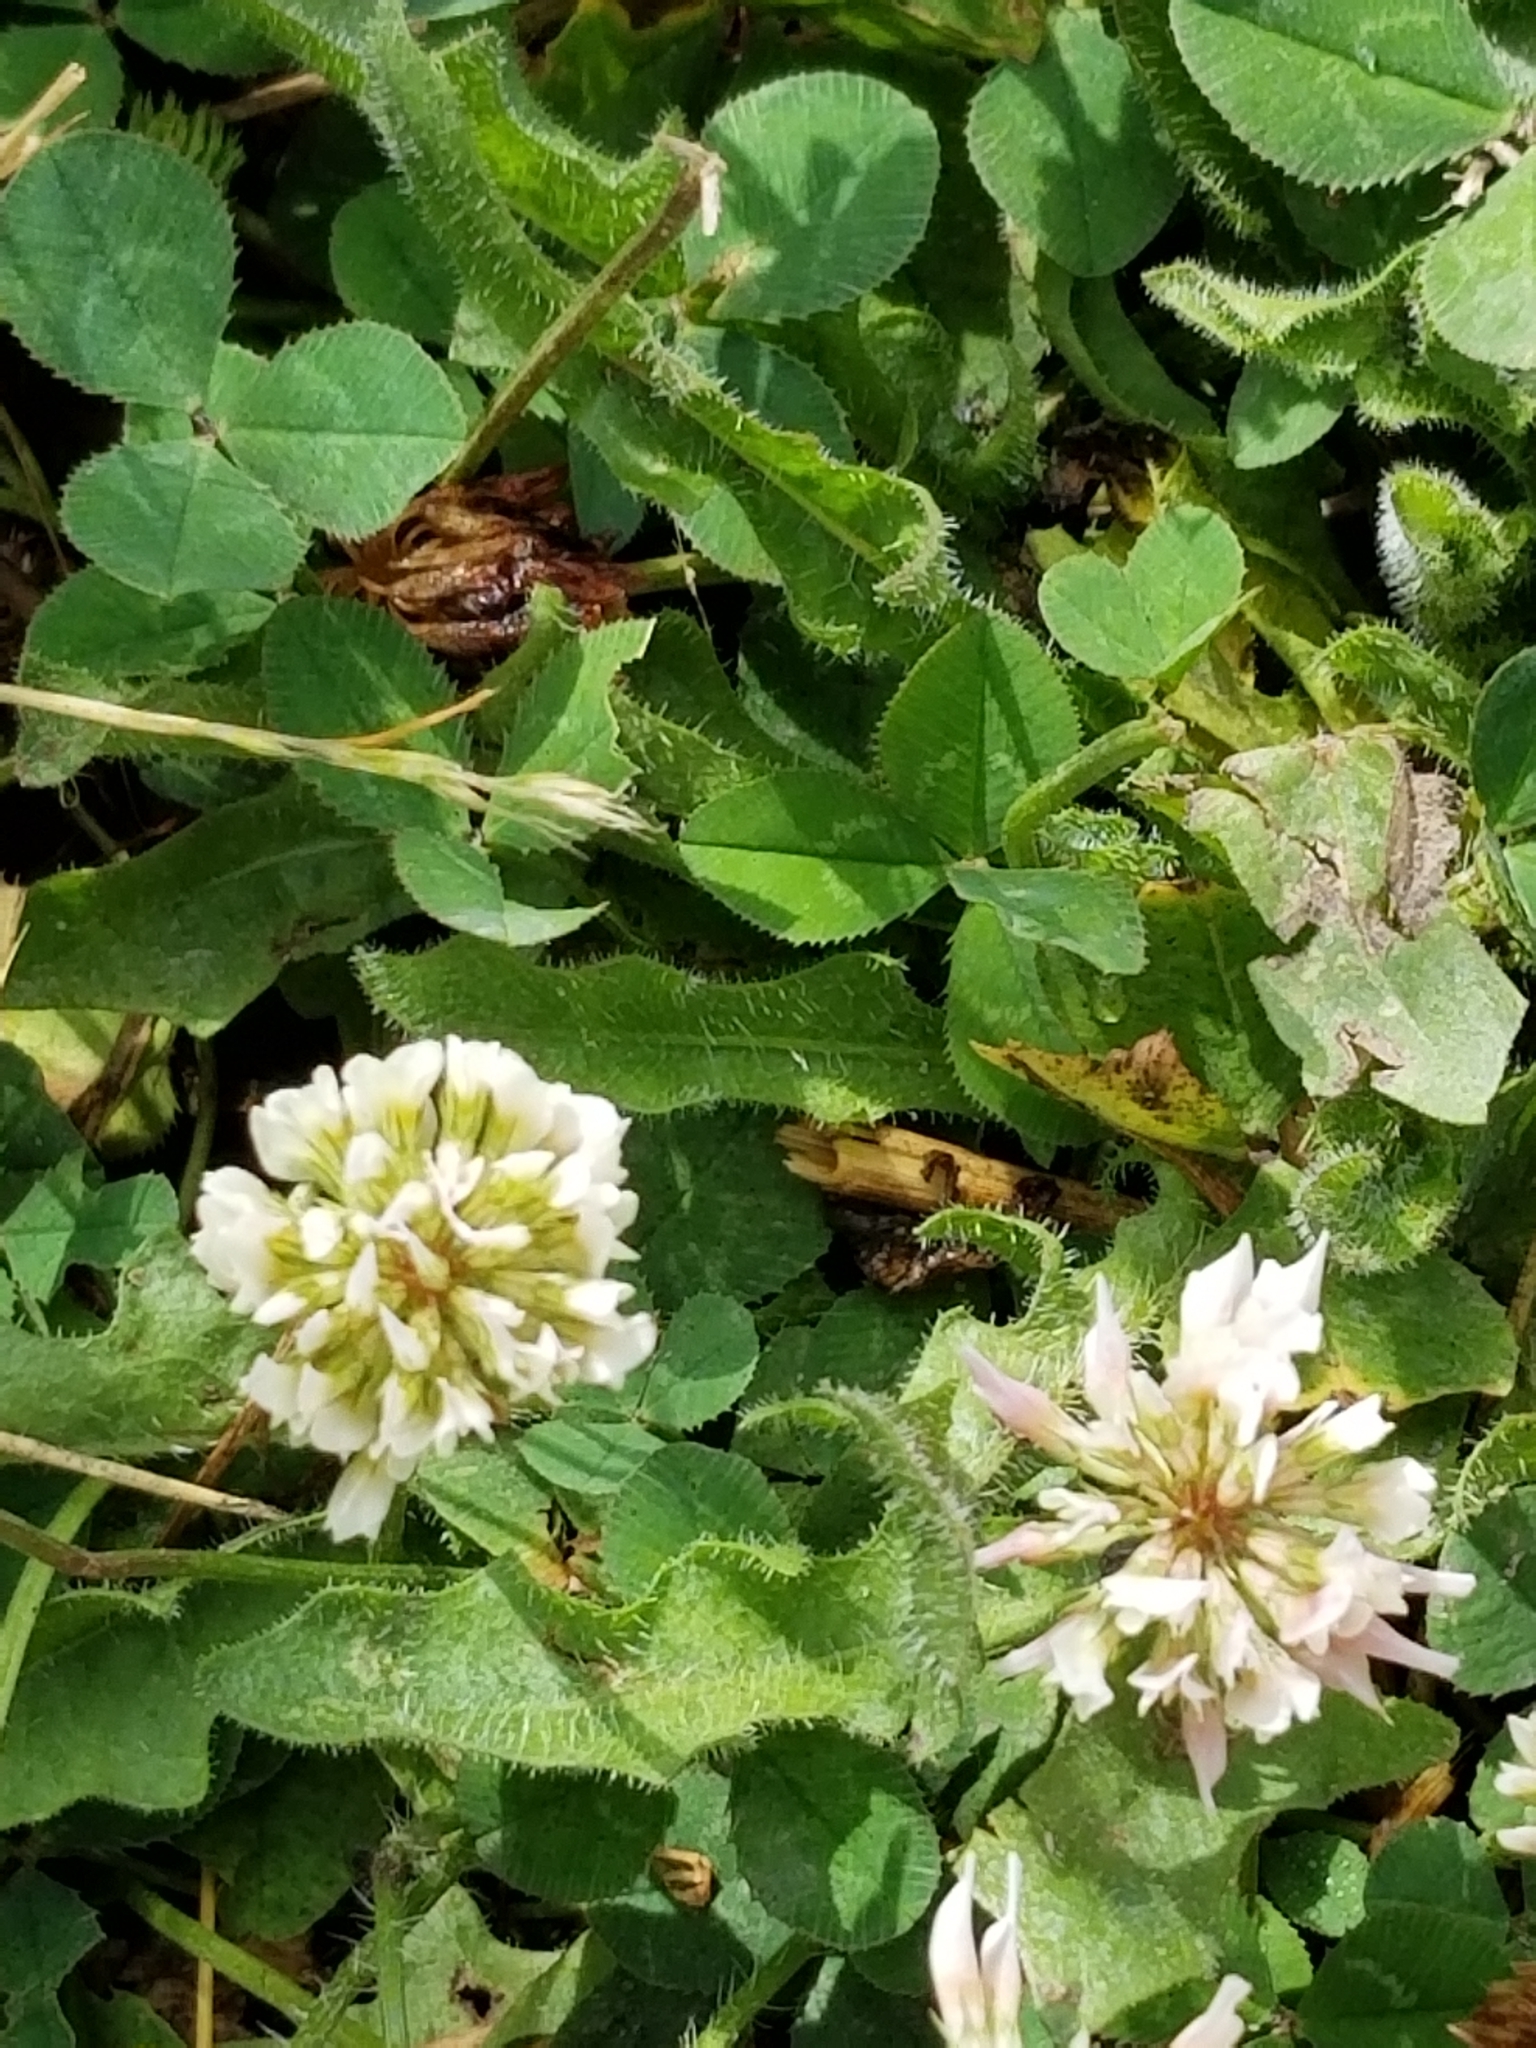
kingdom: Plantae
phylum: Tracheophyta
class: Magnoliopsida
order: Fabales
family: Fabaceae
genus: Trifolium
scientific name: Trifolium repens
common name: White clover
